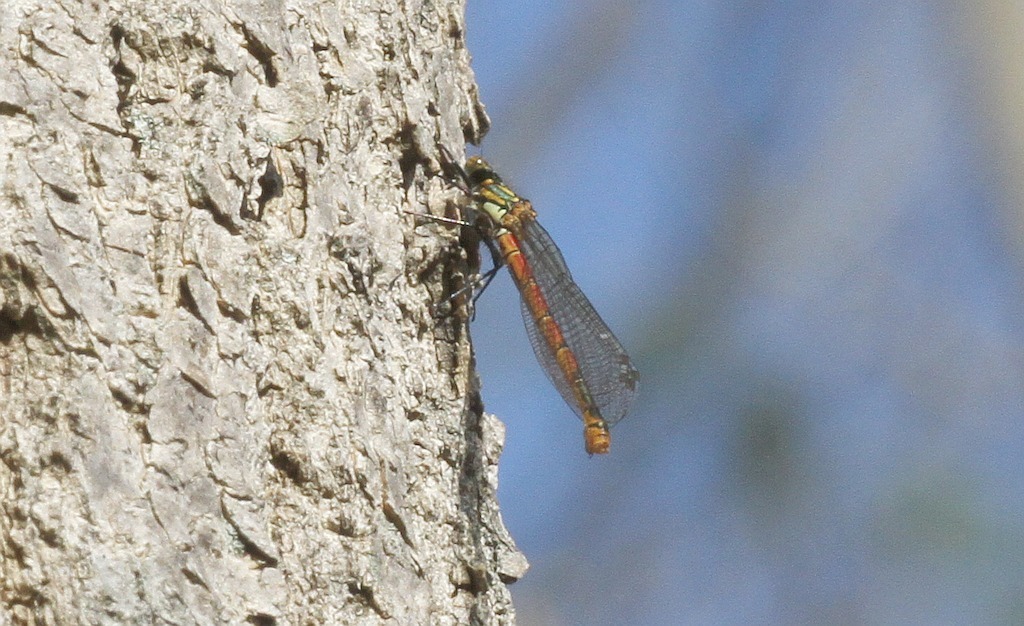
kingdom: Animalia
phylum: Arthropoda
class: Insecta
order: Odonata
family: Coenagrionidae
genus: Pyrrhosoma
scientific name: Pyrrhosoma nymphula
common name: Large red damsel
